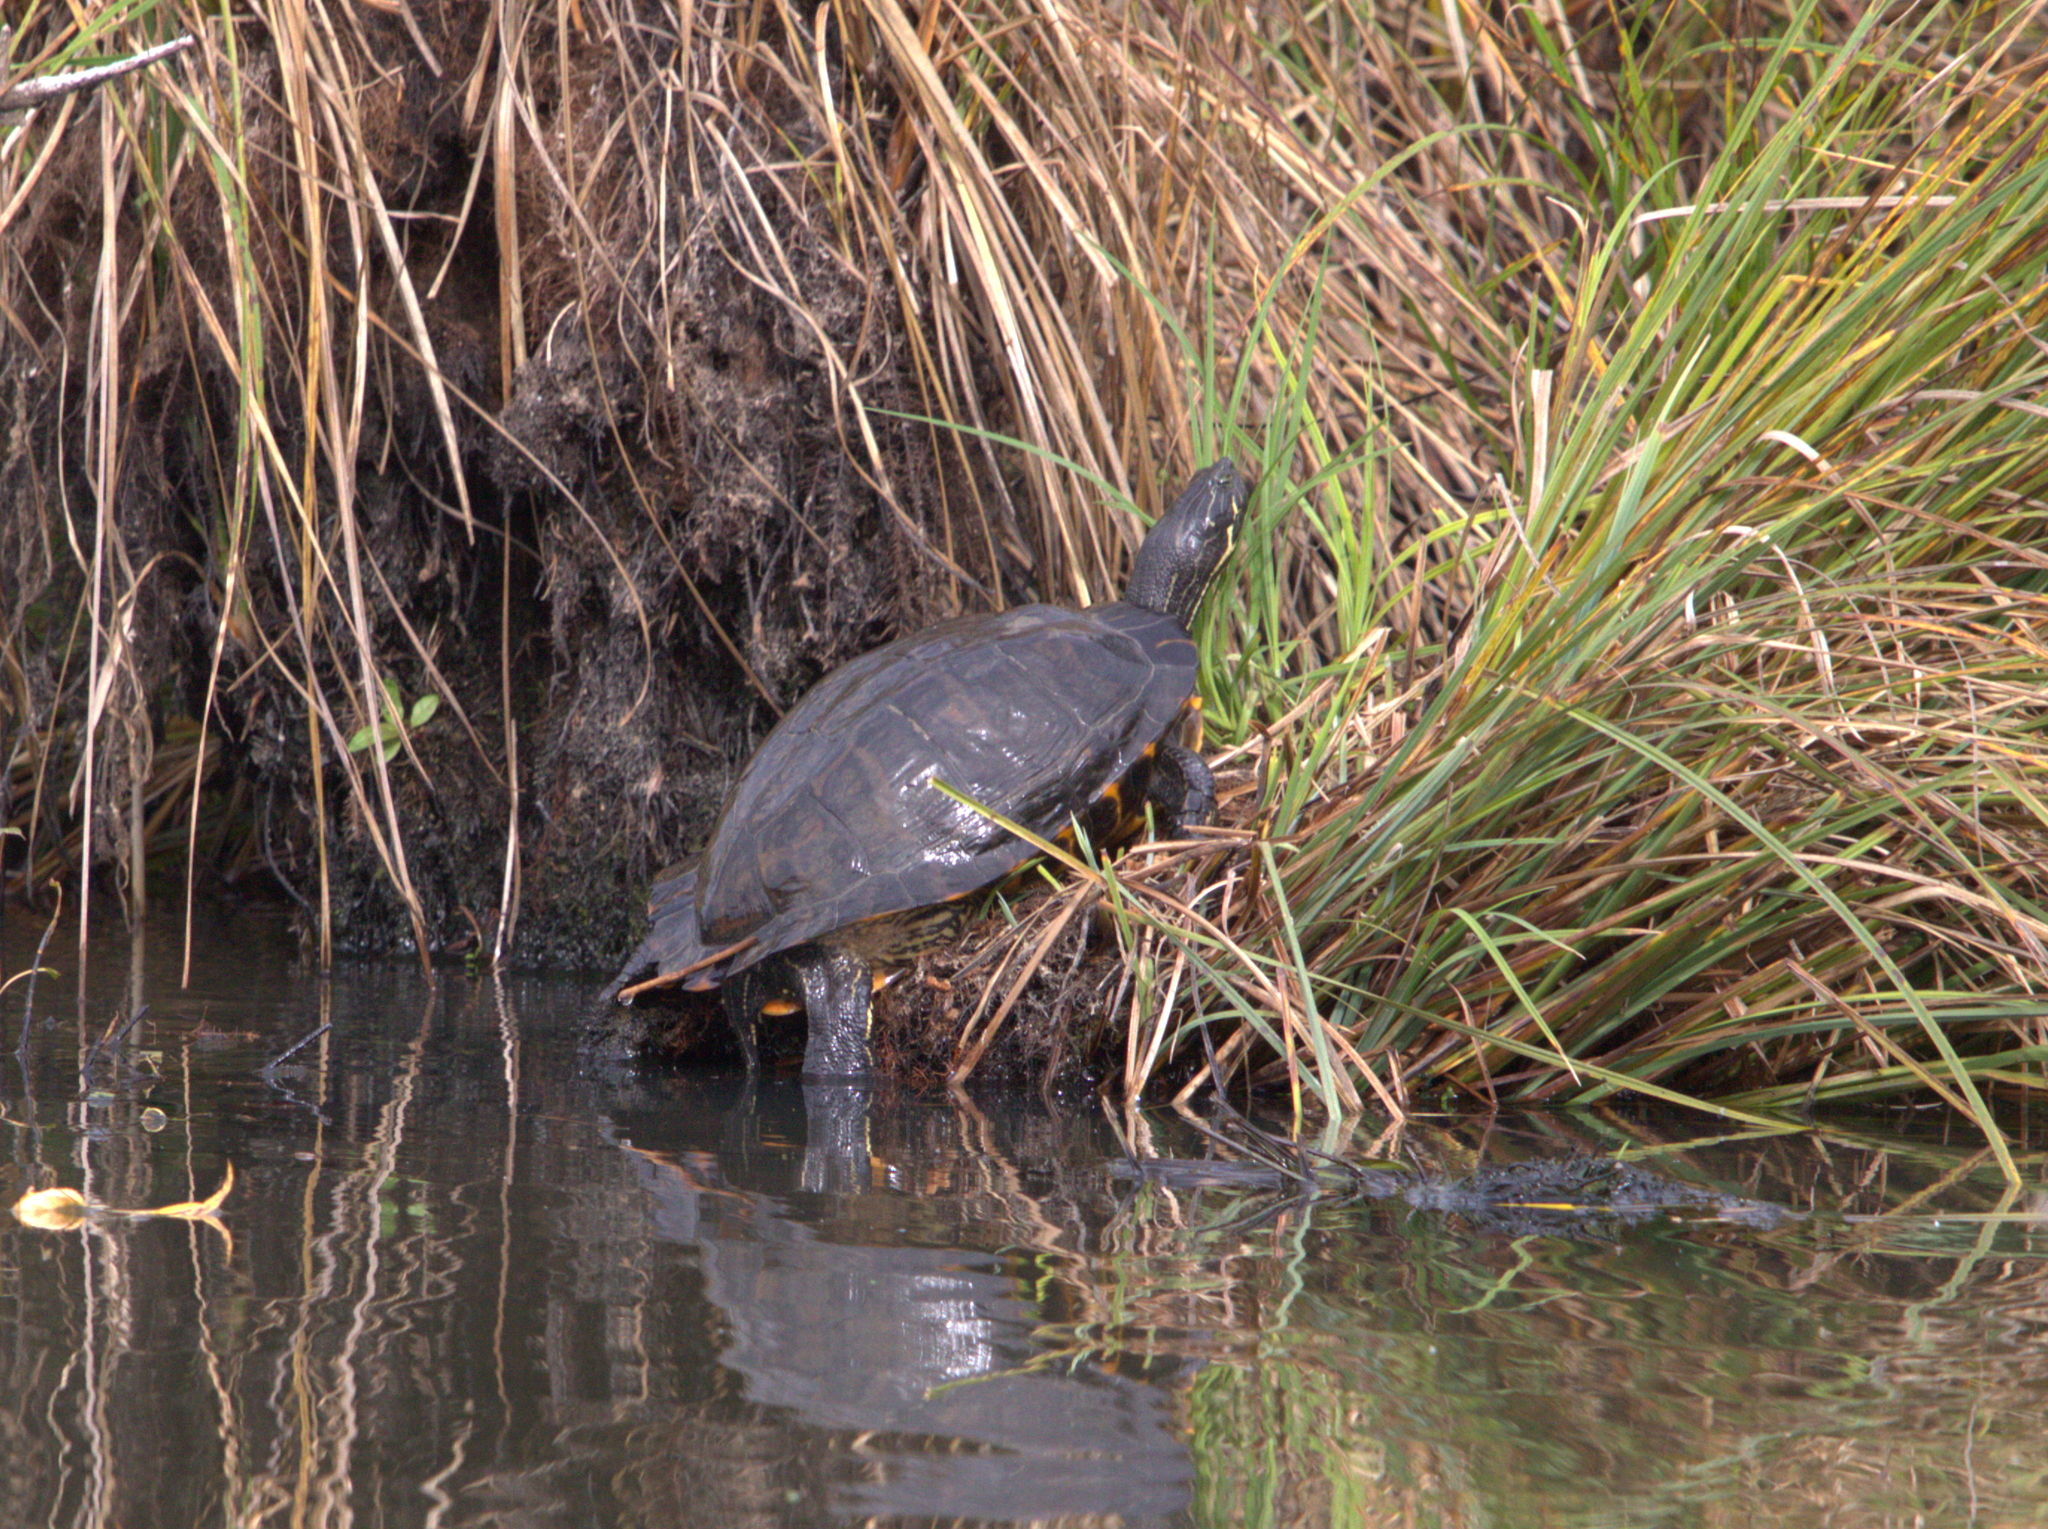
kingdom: Animalia
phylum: Chordata
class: Testudines
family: Emydidae
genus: Trachemys
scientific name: Trachemys scripta
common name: Slider
